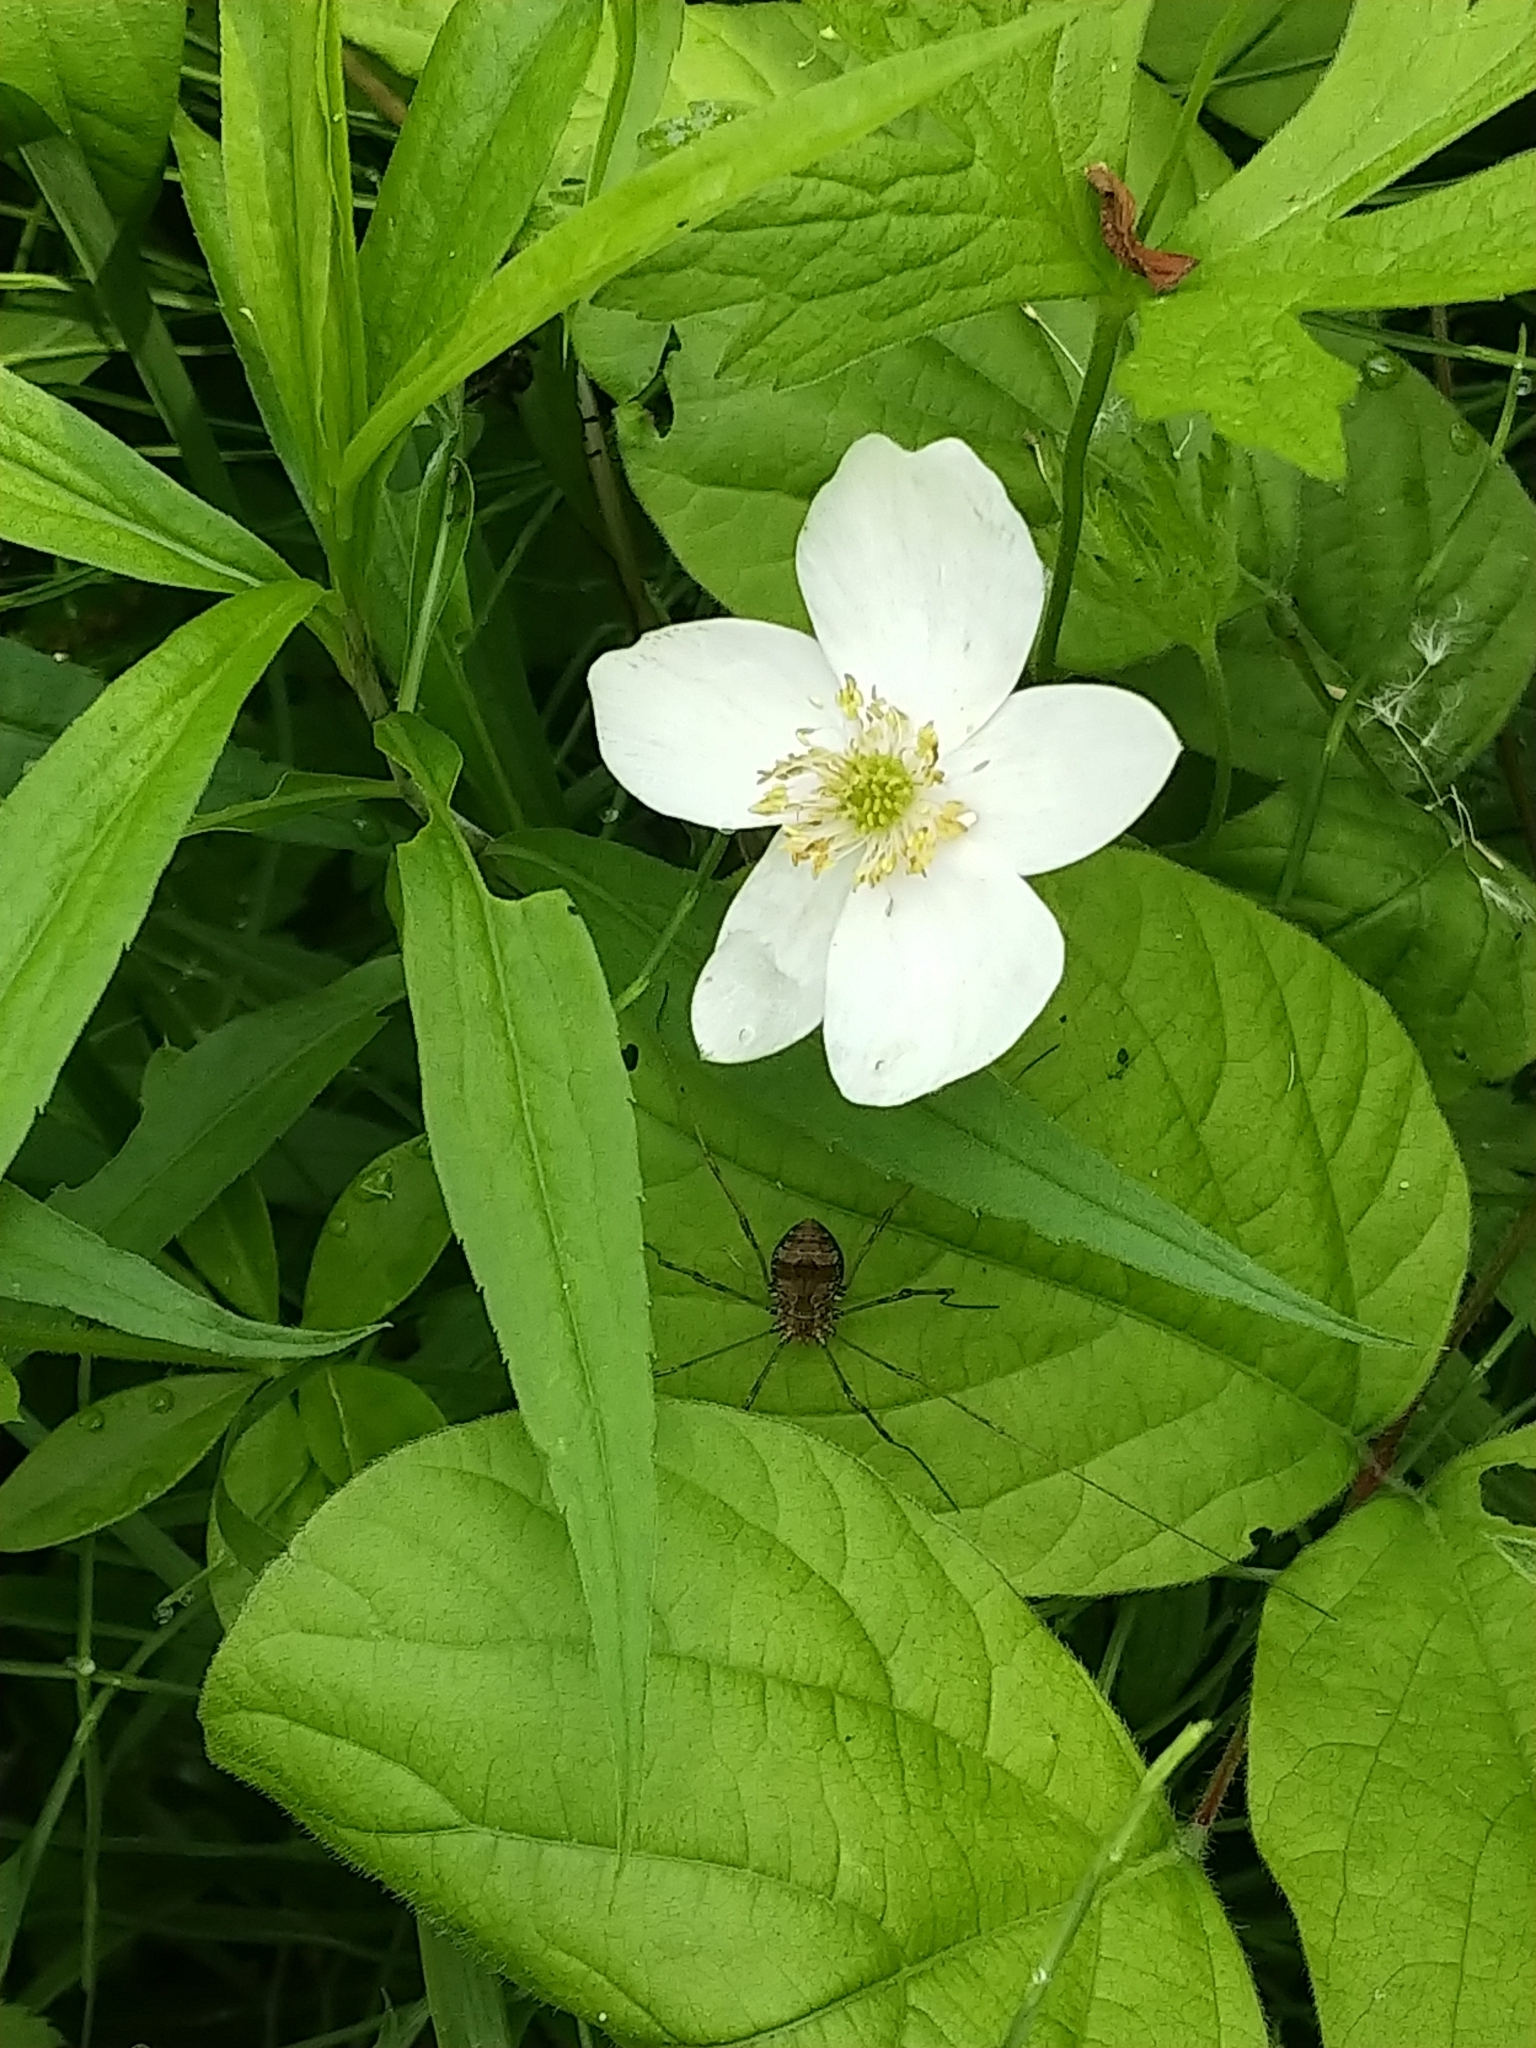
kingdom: Animalia
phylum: Arthropoda
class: Arachnida
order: Opiliones
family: Sclerosomatidae
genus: Leiobunum
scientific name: Leiobunum verrucosum
